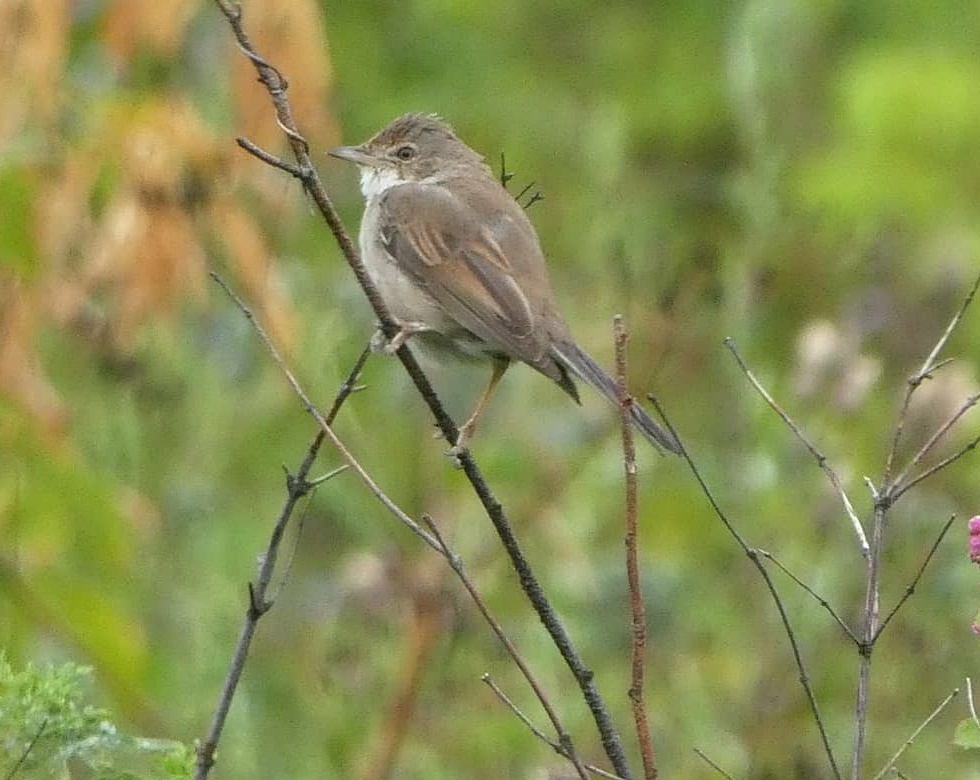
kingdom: Animalia
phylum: Chordata
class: Aves
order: Passeriformes
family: Sylviidae
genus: Sylvia
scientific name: Sylvia communis
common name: Common whitethroat
